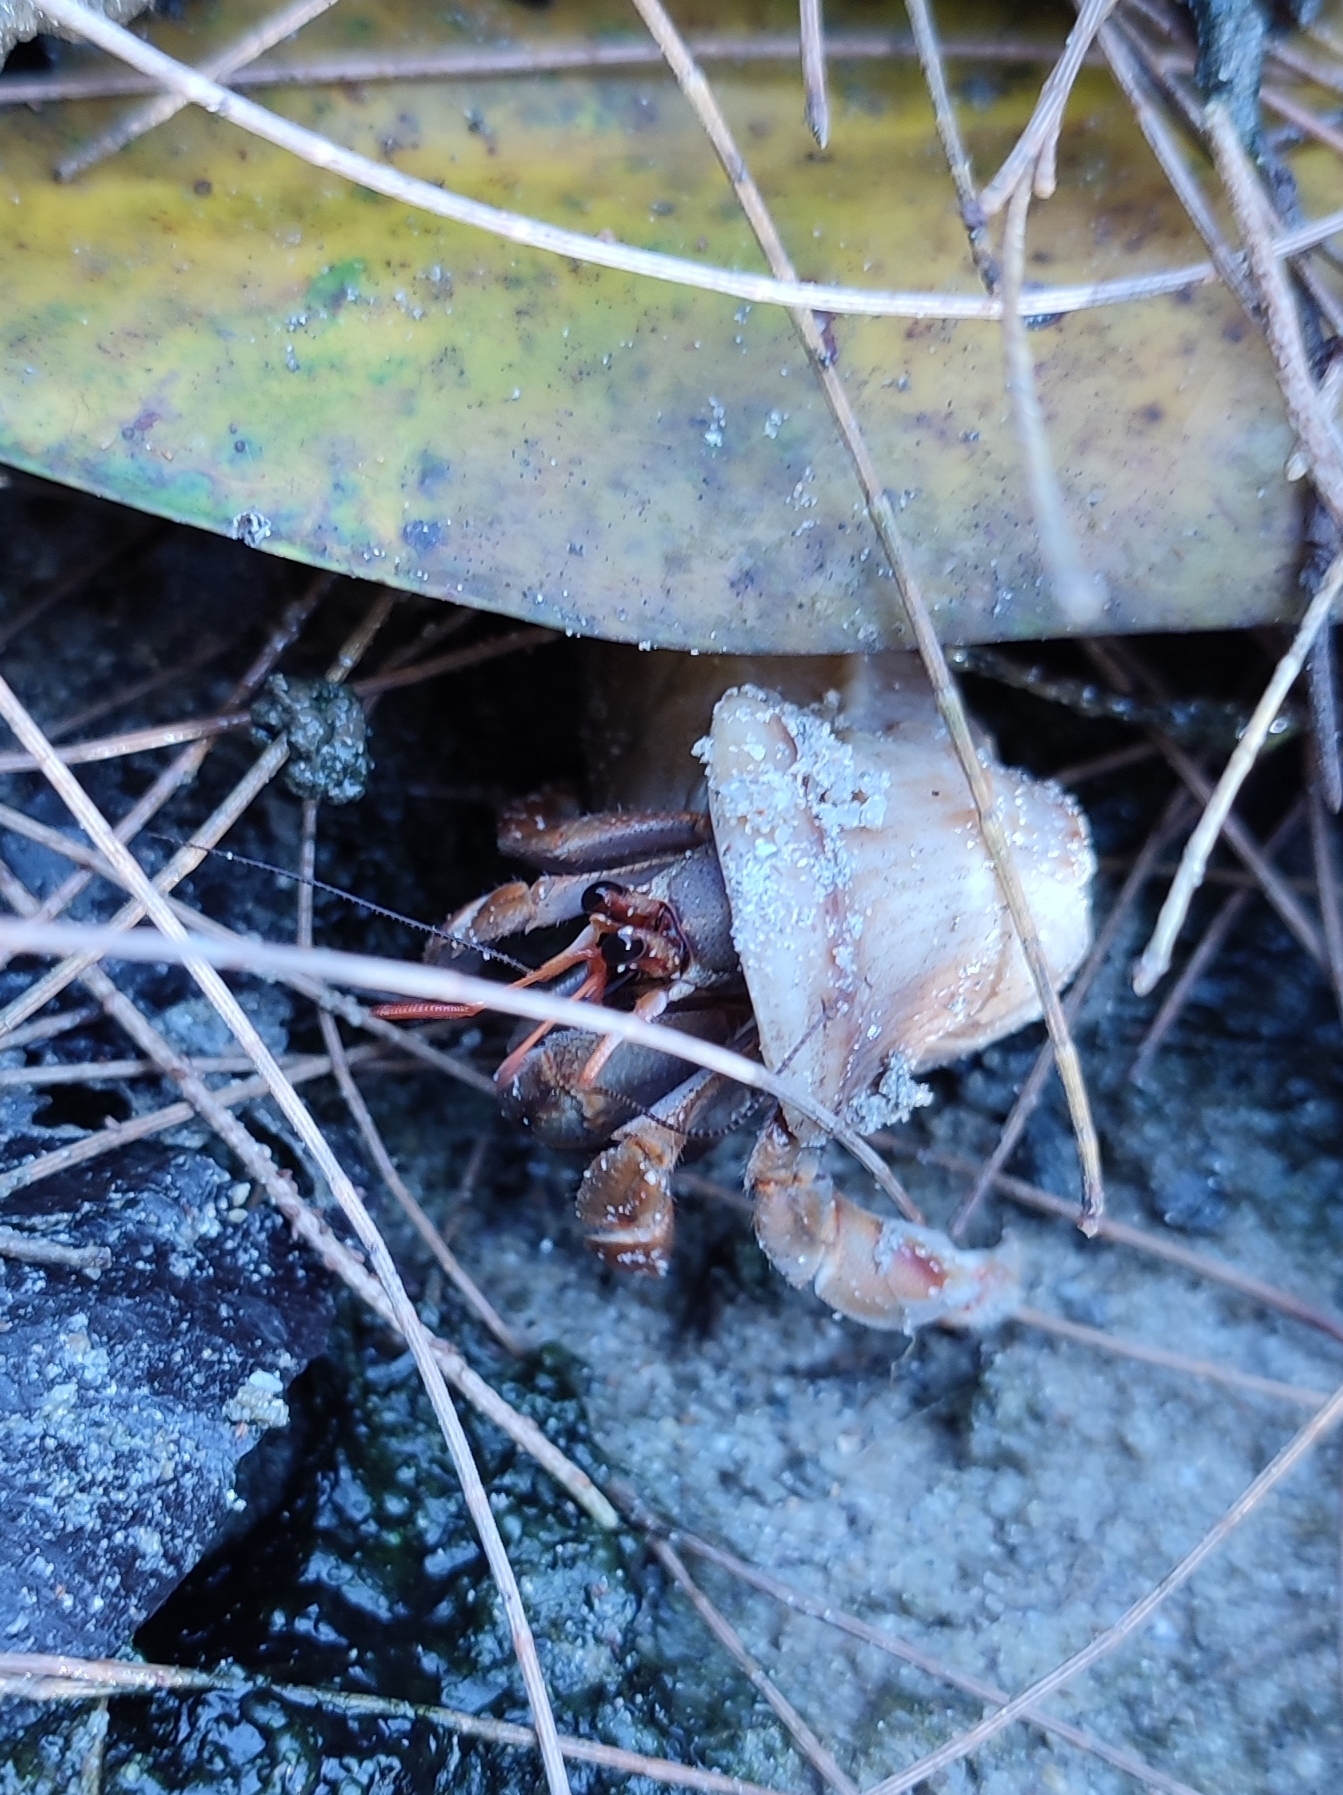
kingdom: Animalia
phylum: Arthropoda
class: Malacostraca
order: Decapoda
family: Coenobitidae
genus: Coenobita
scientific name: Coenobita violascens
